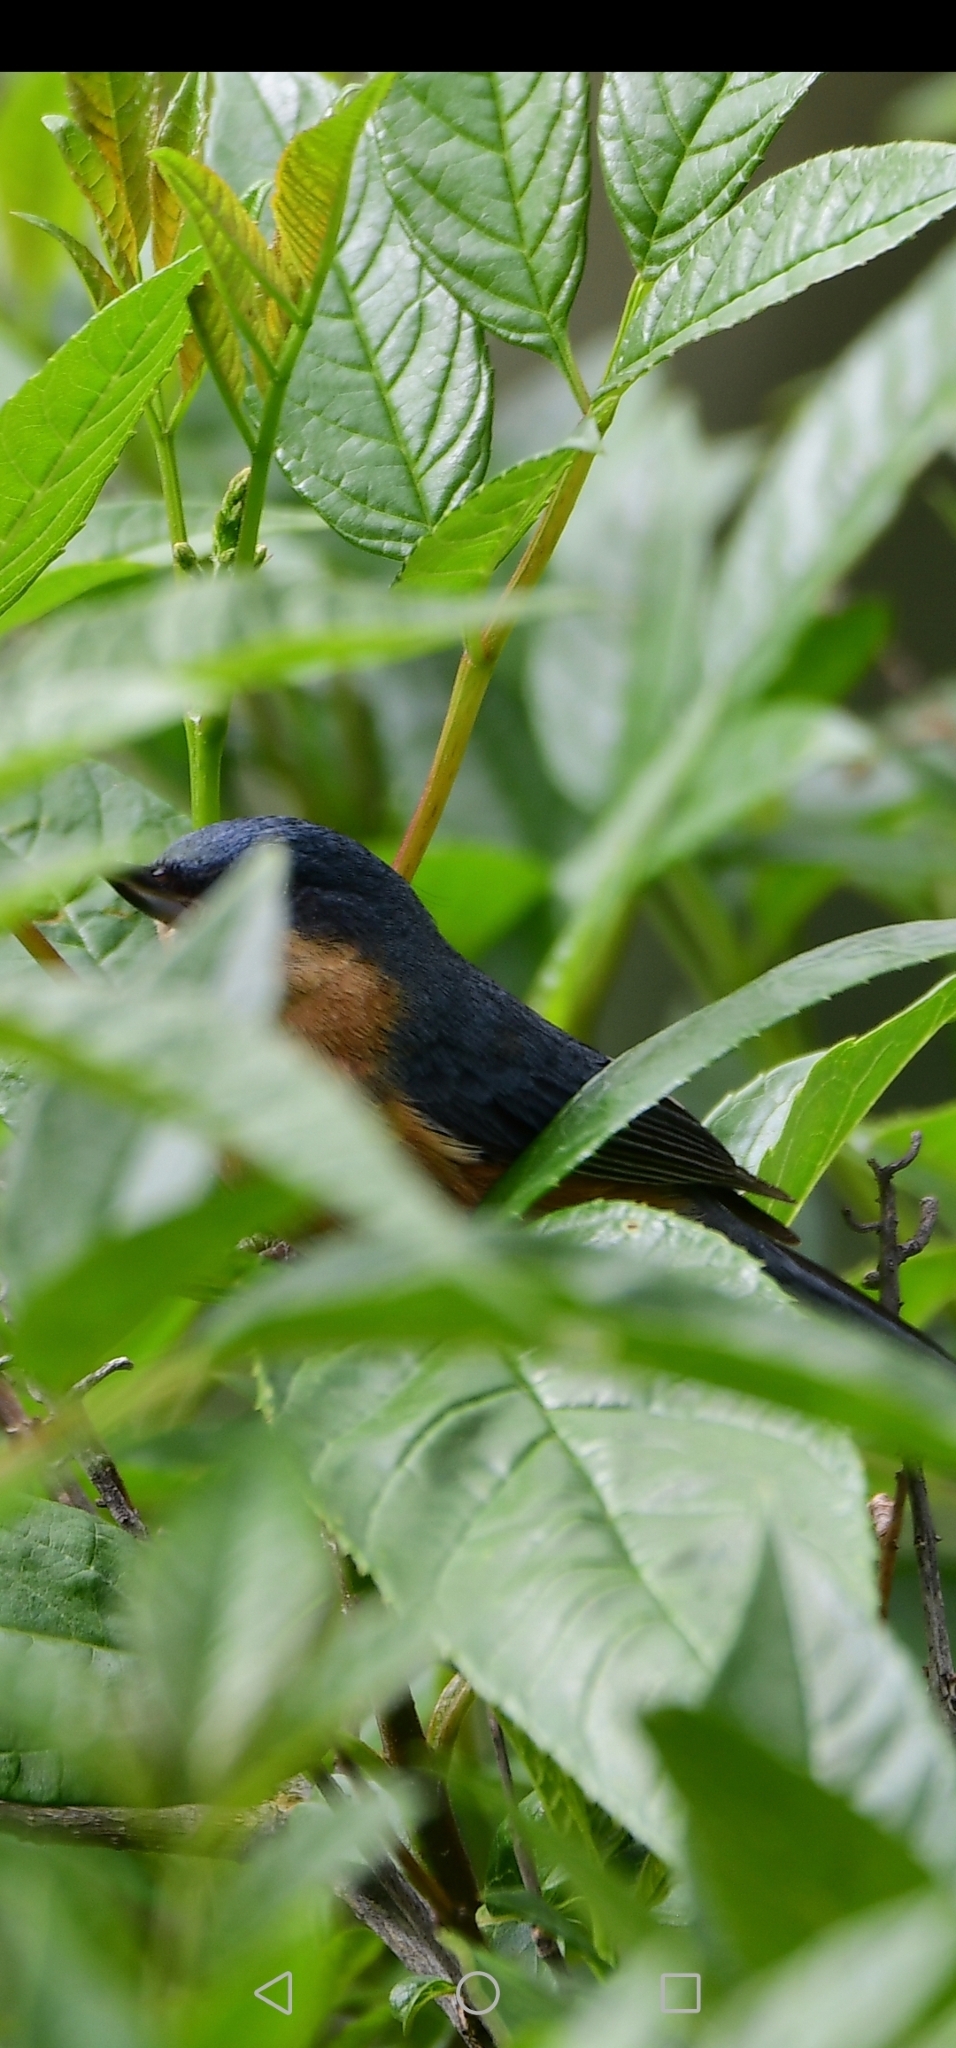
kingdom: Animalia
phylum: Chordata
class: Aves
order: Passeriformes
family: Thraupidae
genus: Diglossa
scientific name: Diglossa sittoides
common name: Rusty flowerpiercer
